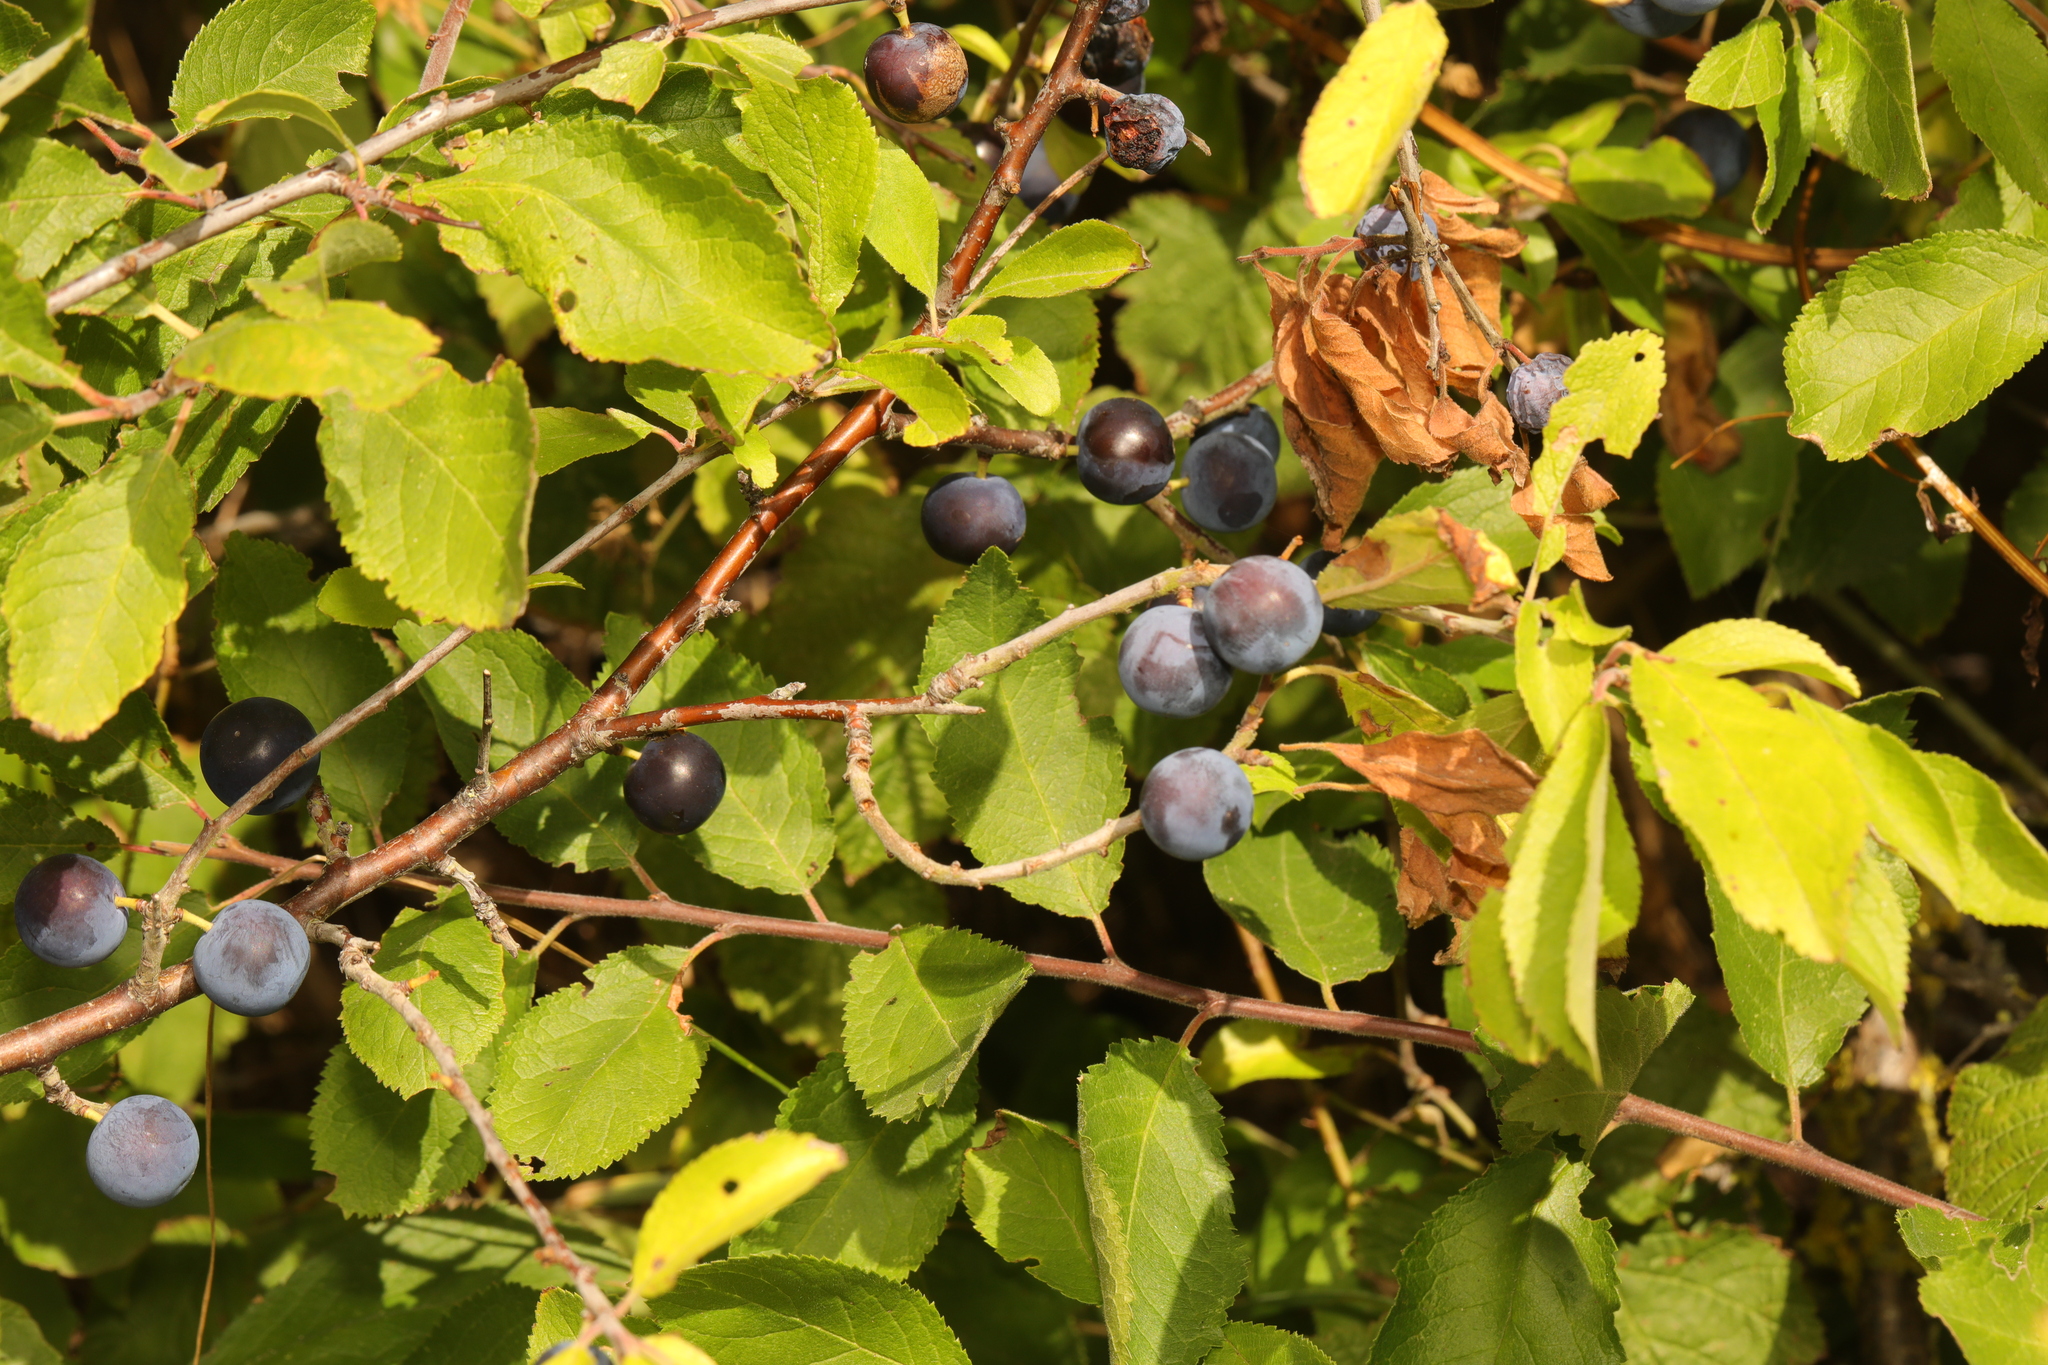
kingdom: Plantae
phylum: Tracheophyta
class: Magnoliopsida
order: Rosales
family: Rosaceae
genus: Prunus
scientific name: Prunus spinosa
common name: Blackthorn
